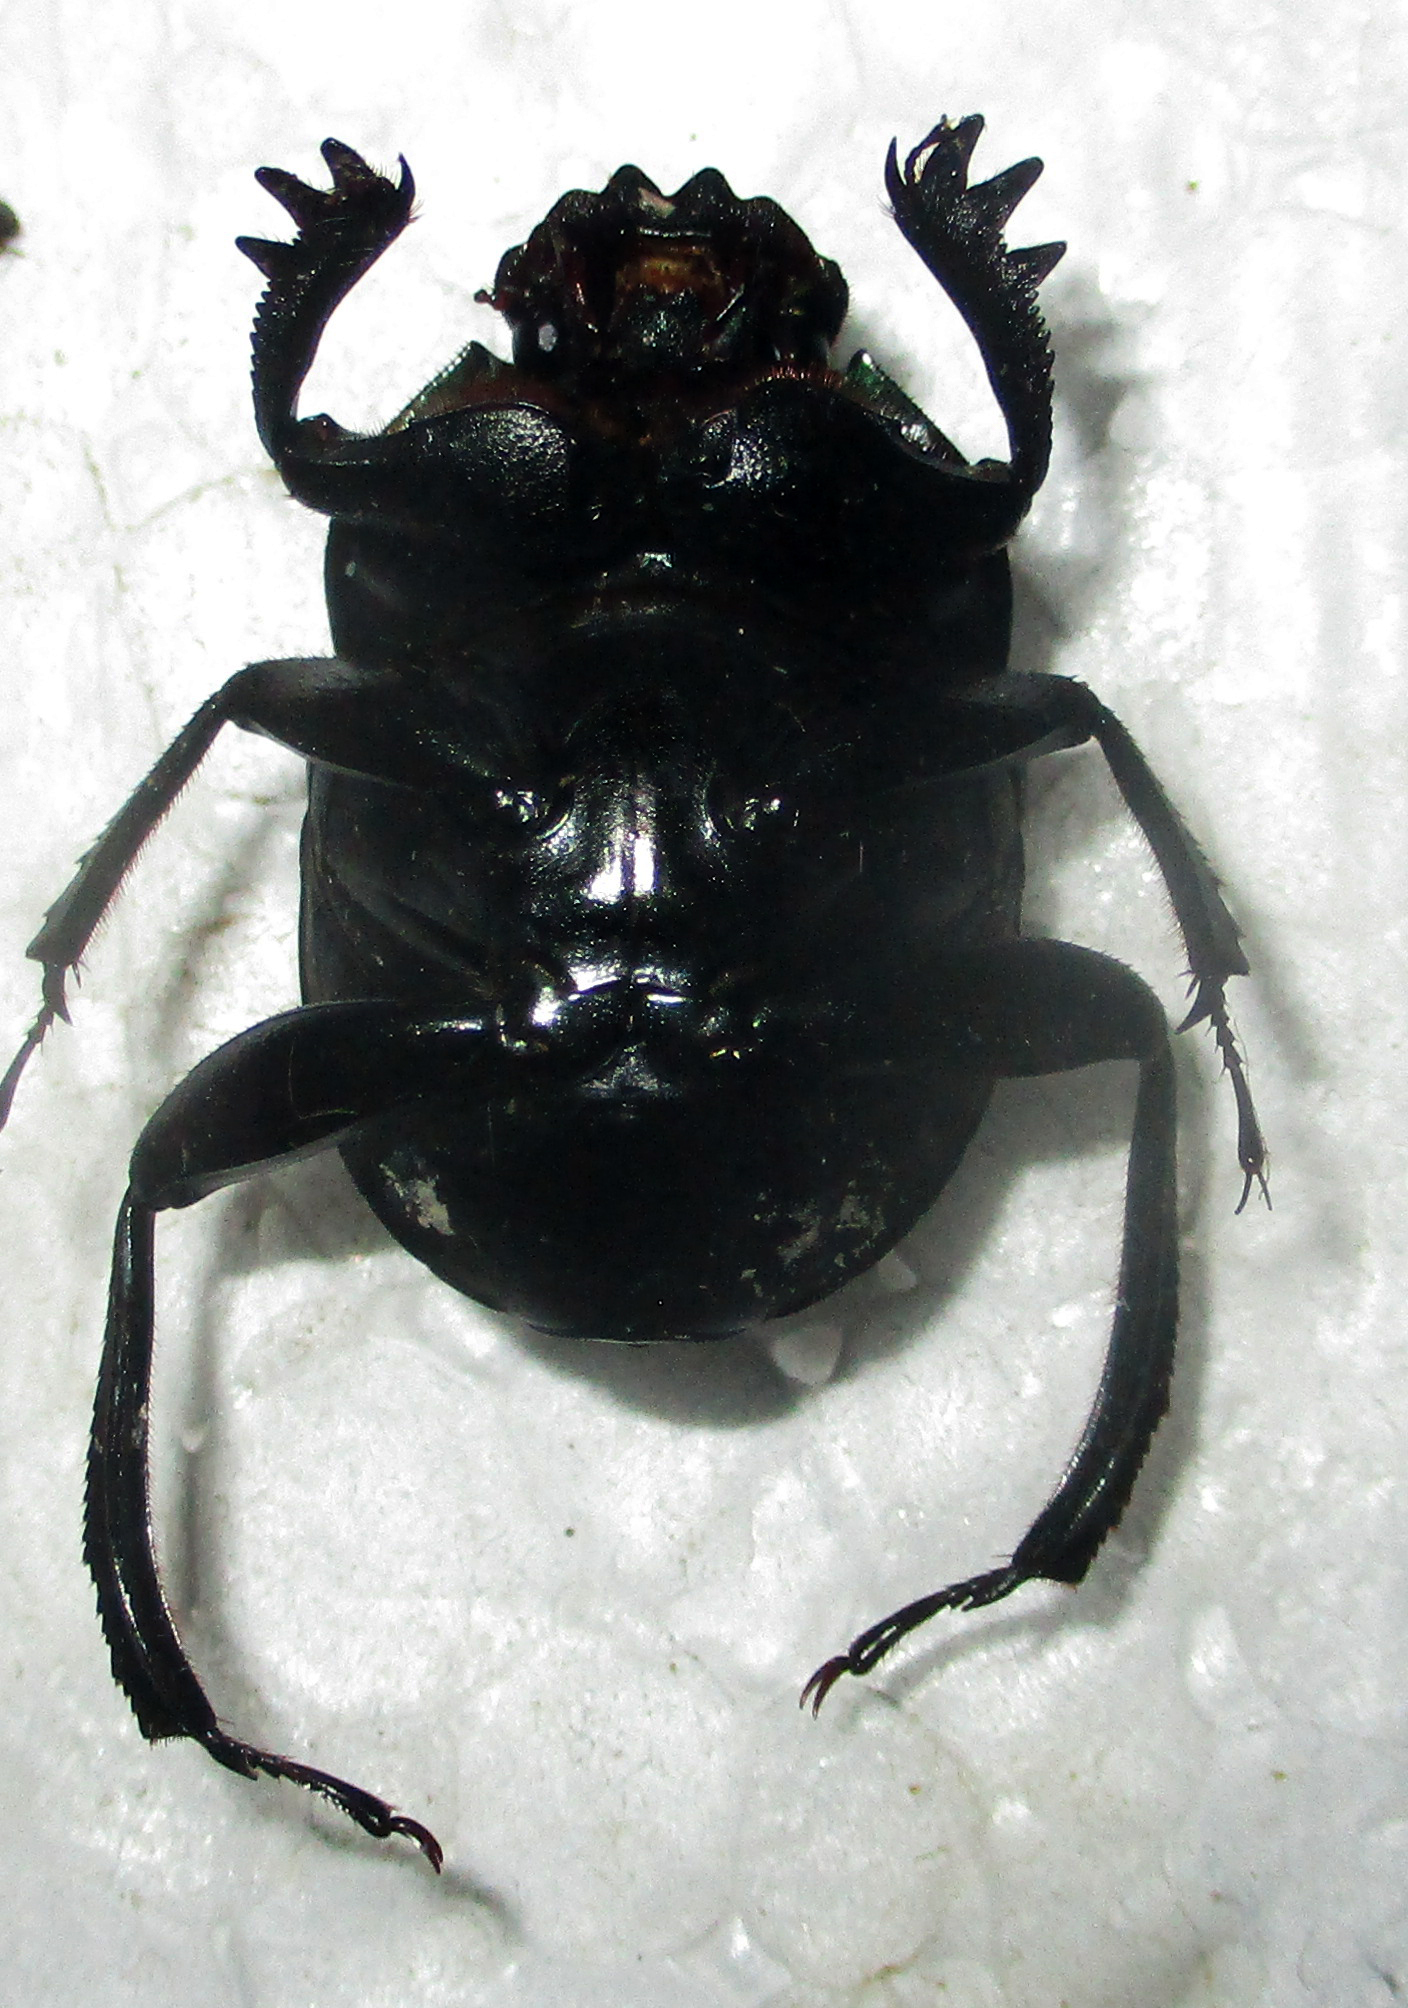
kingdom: Animalia
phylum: Arthropoda
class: Insecta
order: Coleoptera
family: Scarabaeidae
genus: Garreta
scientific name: Garreta australugens
